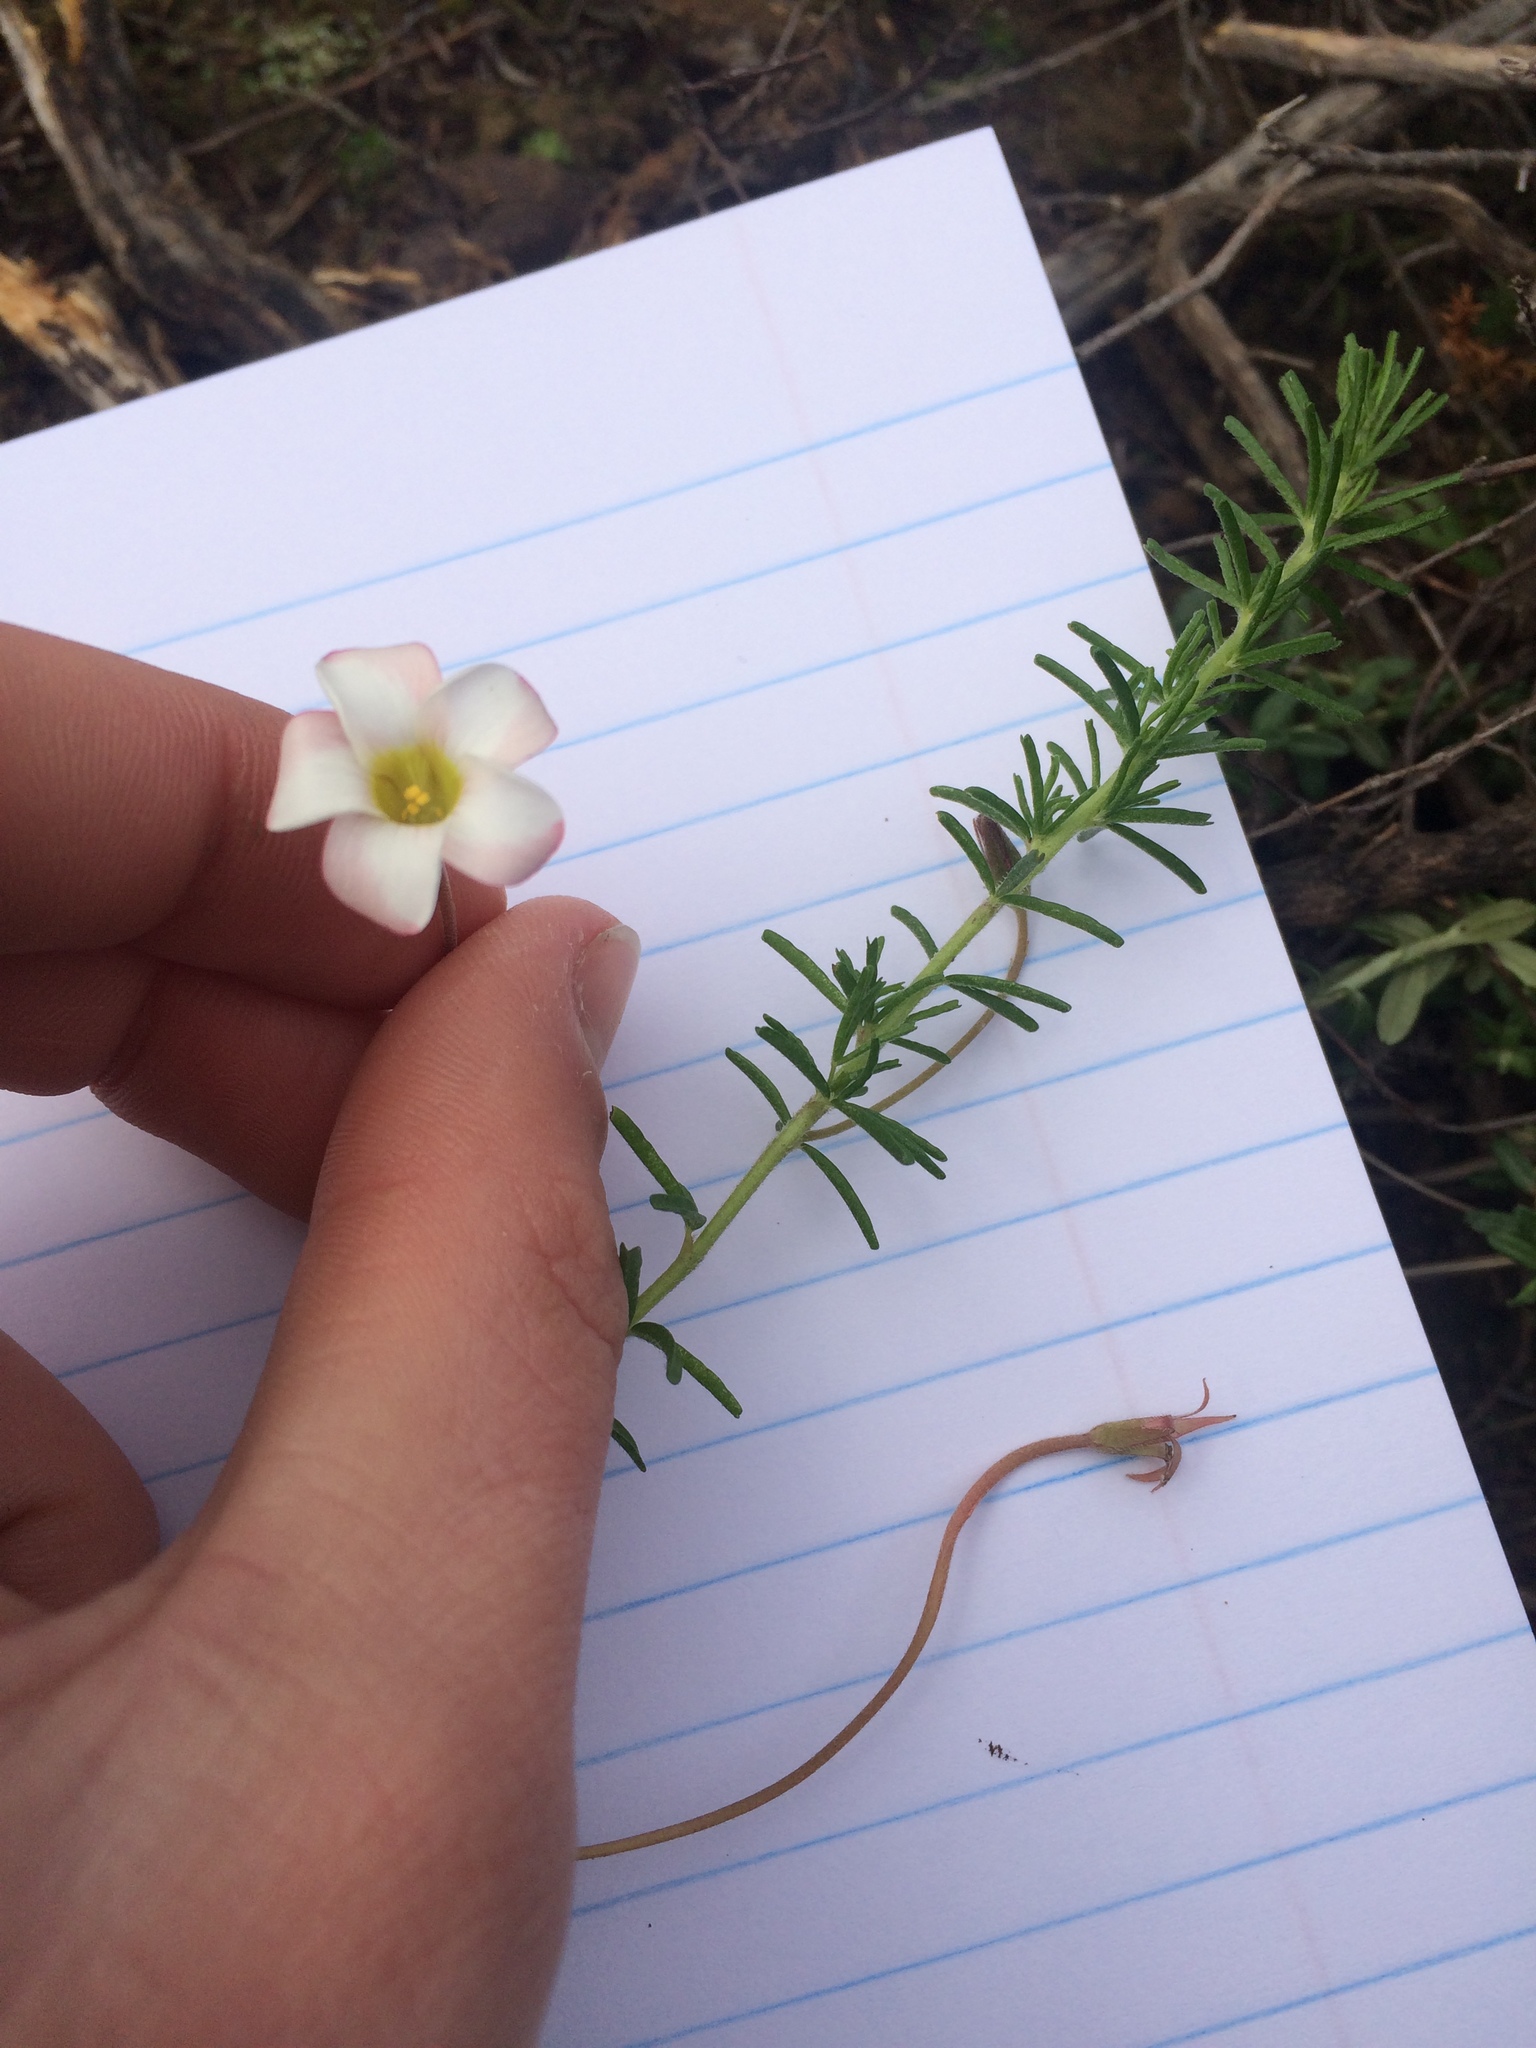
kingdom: Plantae
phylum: Tracheophyta
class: Magnoliopsida
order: Oxalidales
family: Oxalidaceae
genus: Oxalis
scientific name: Oxalis tenuifolia
